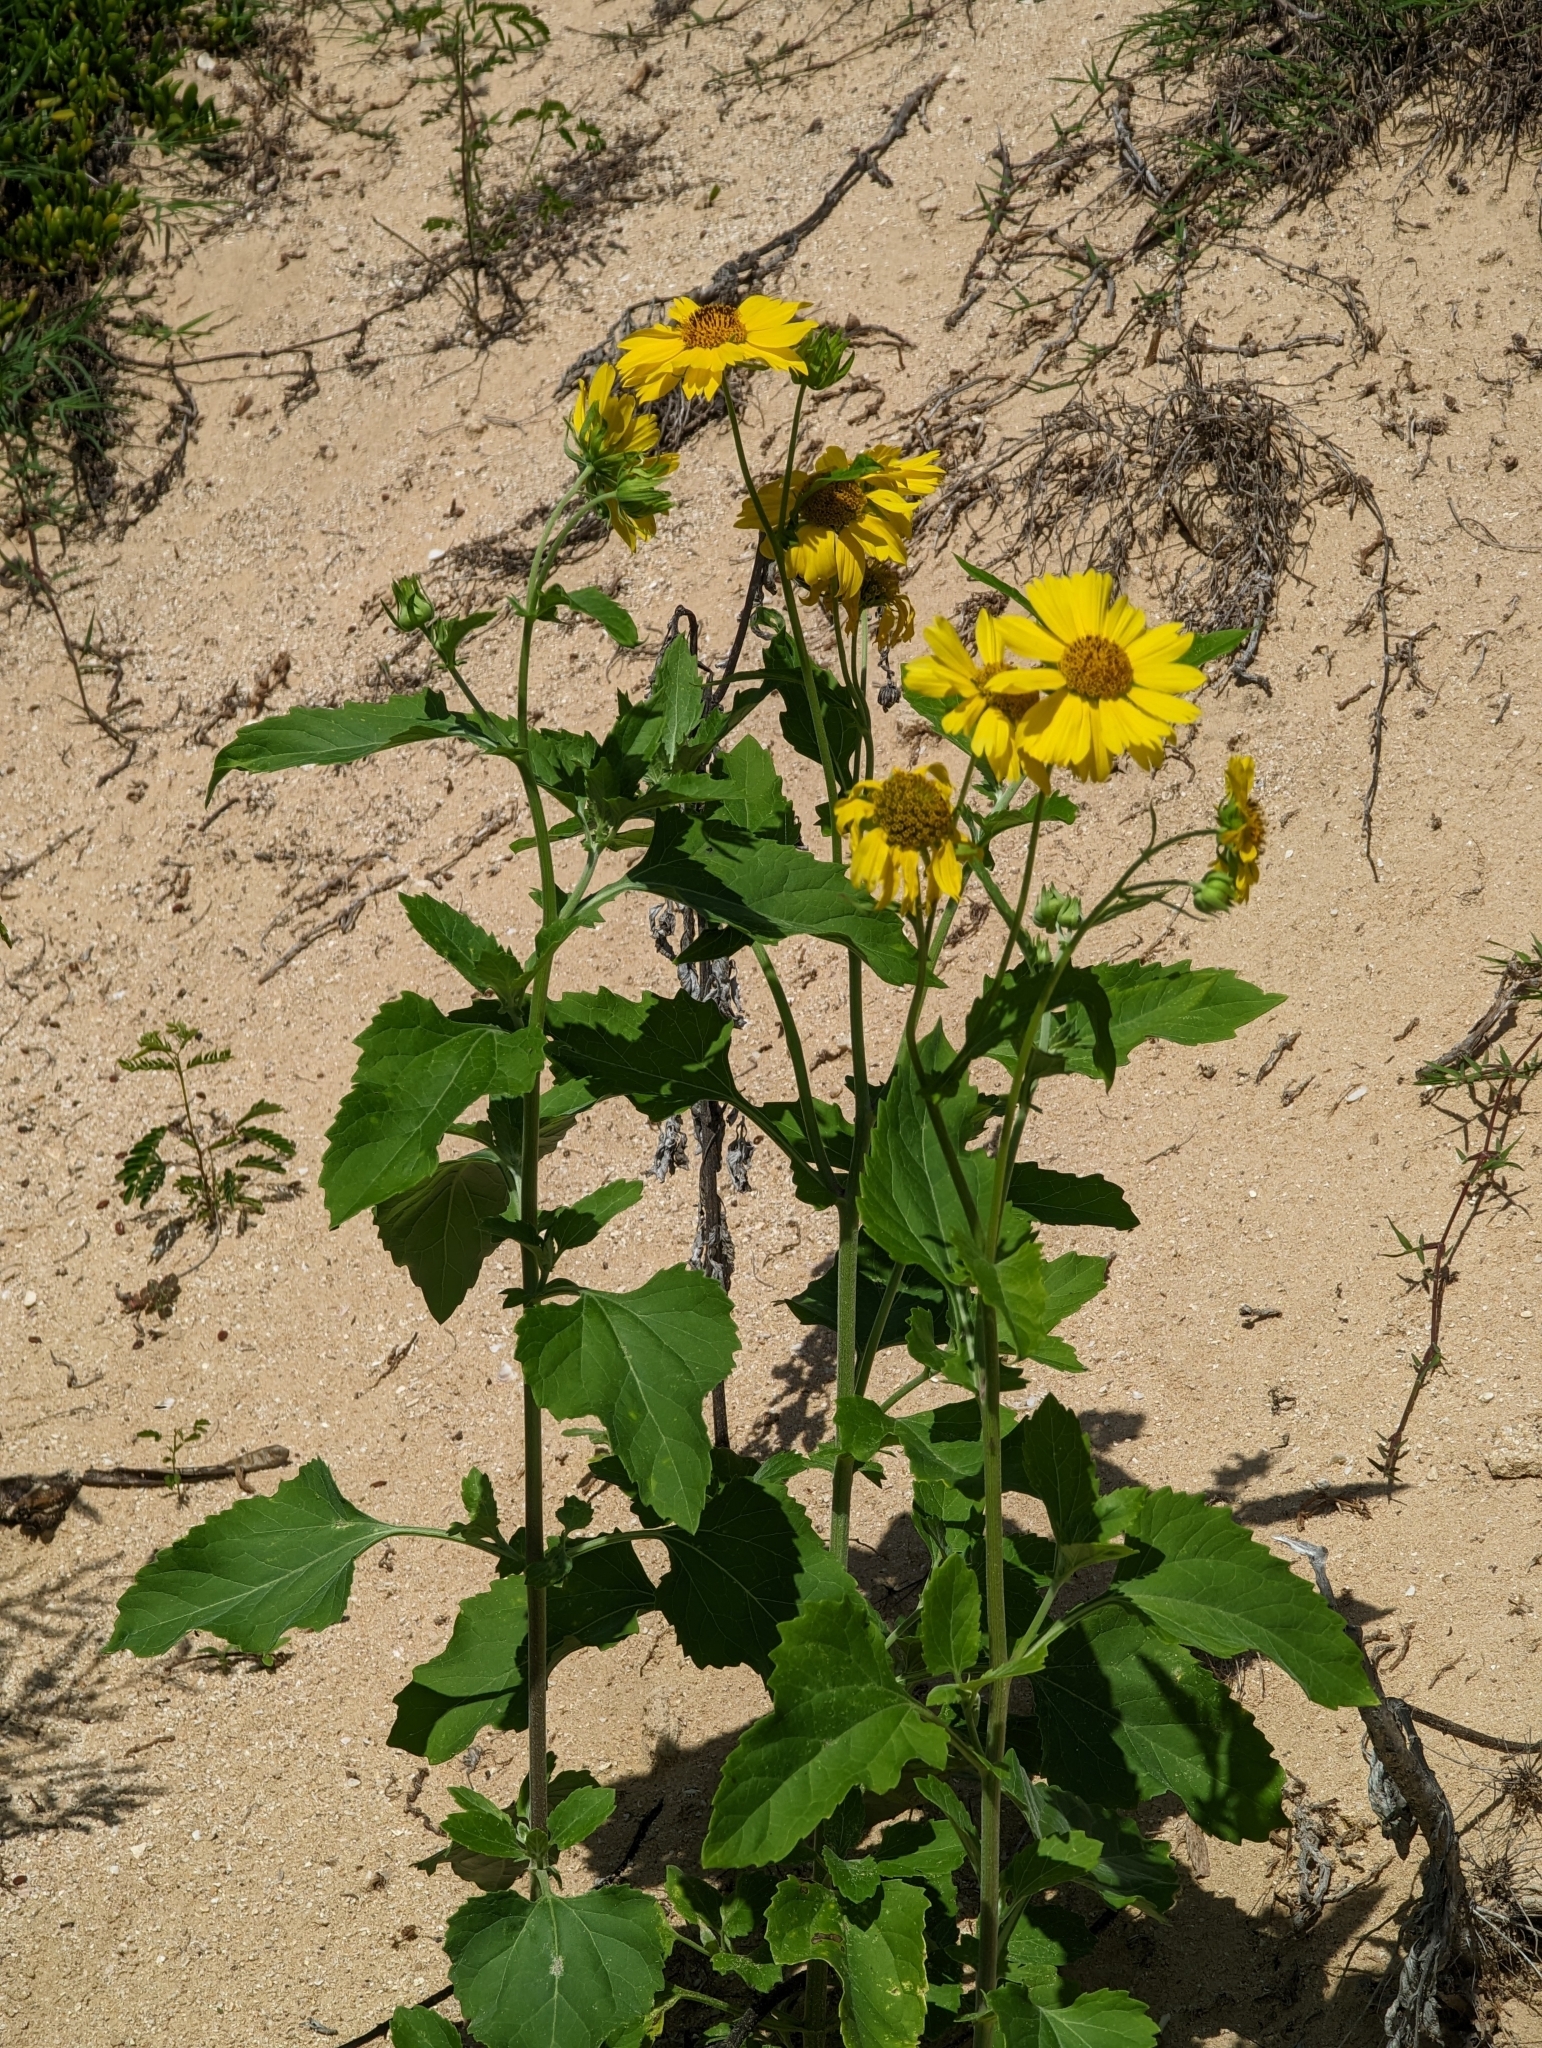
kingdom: Plantae
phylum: Tracheophyta
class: Magnoliopsida
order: Asterales
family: Asteraceae
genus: Verbesina
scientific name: Verbesina encelioides
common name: Golden crownbeard
